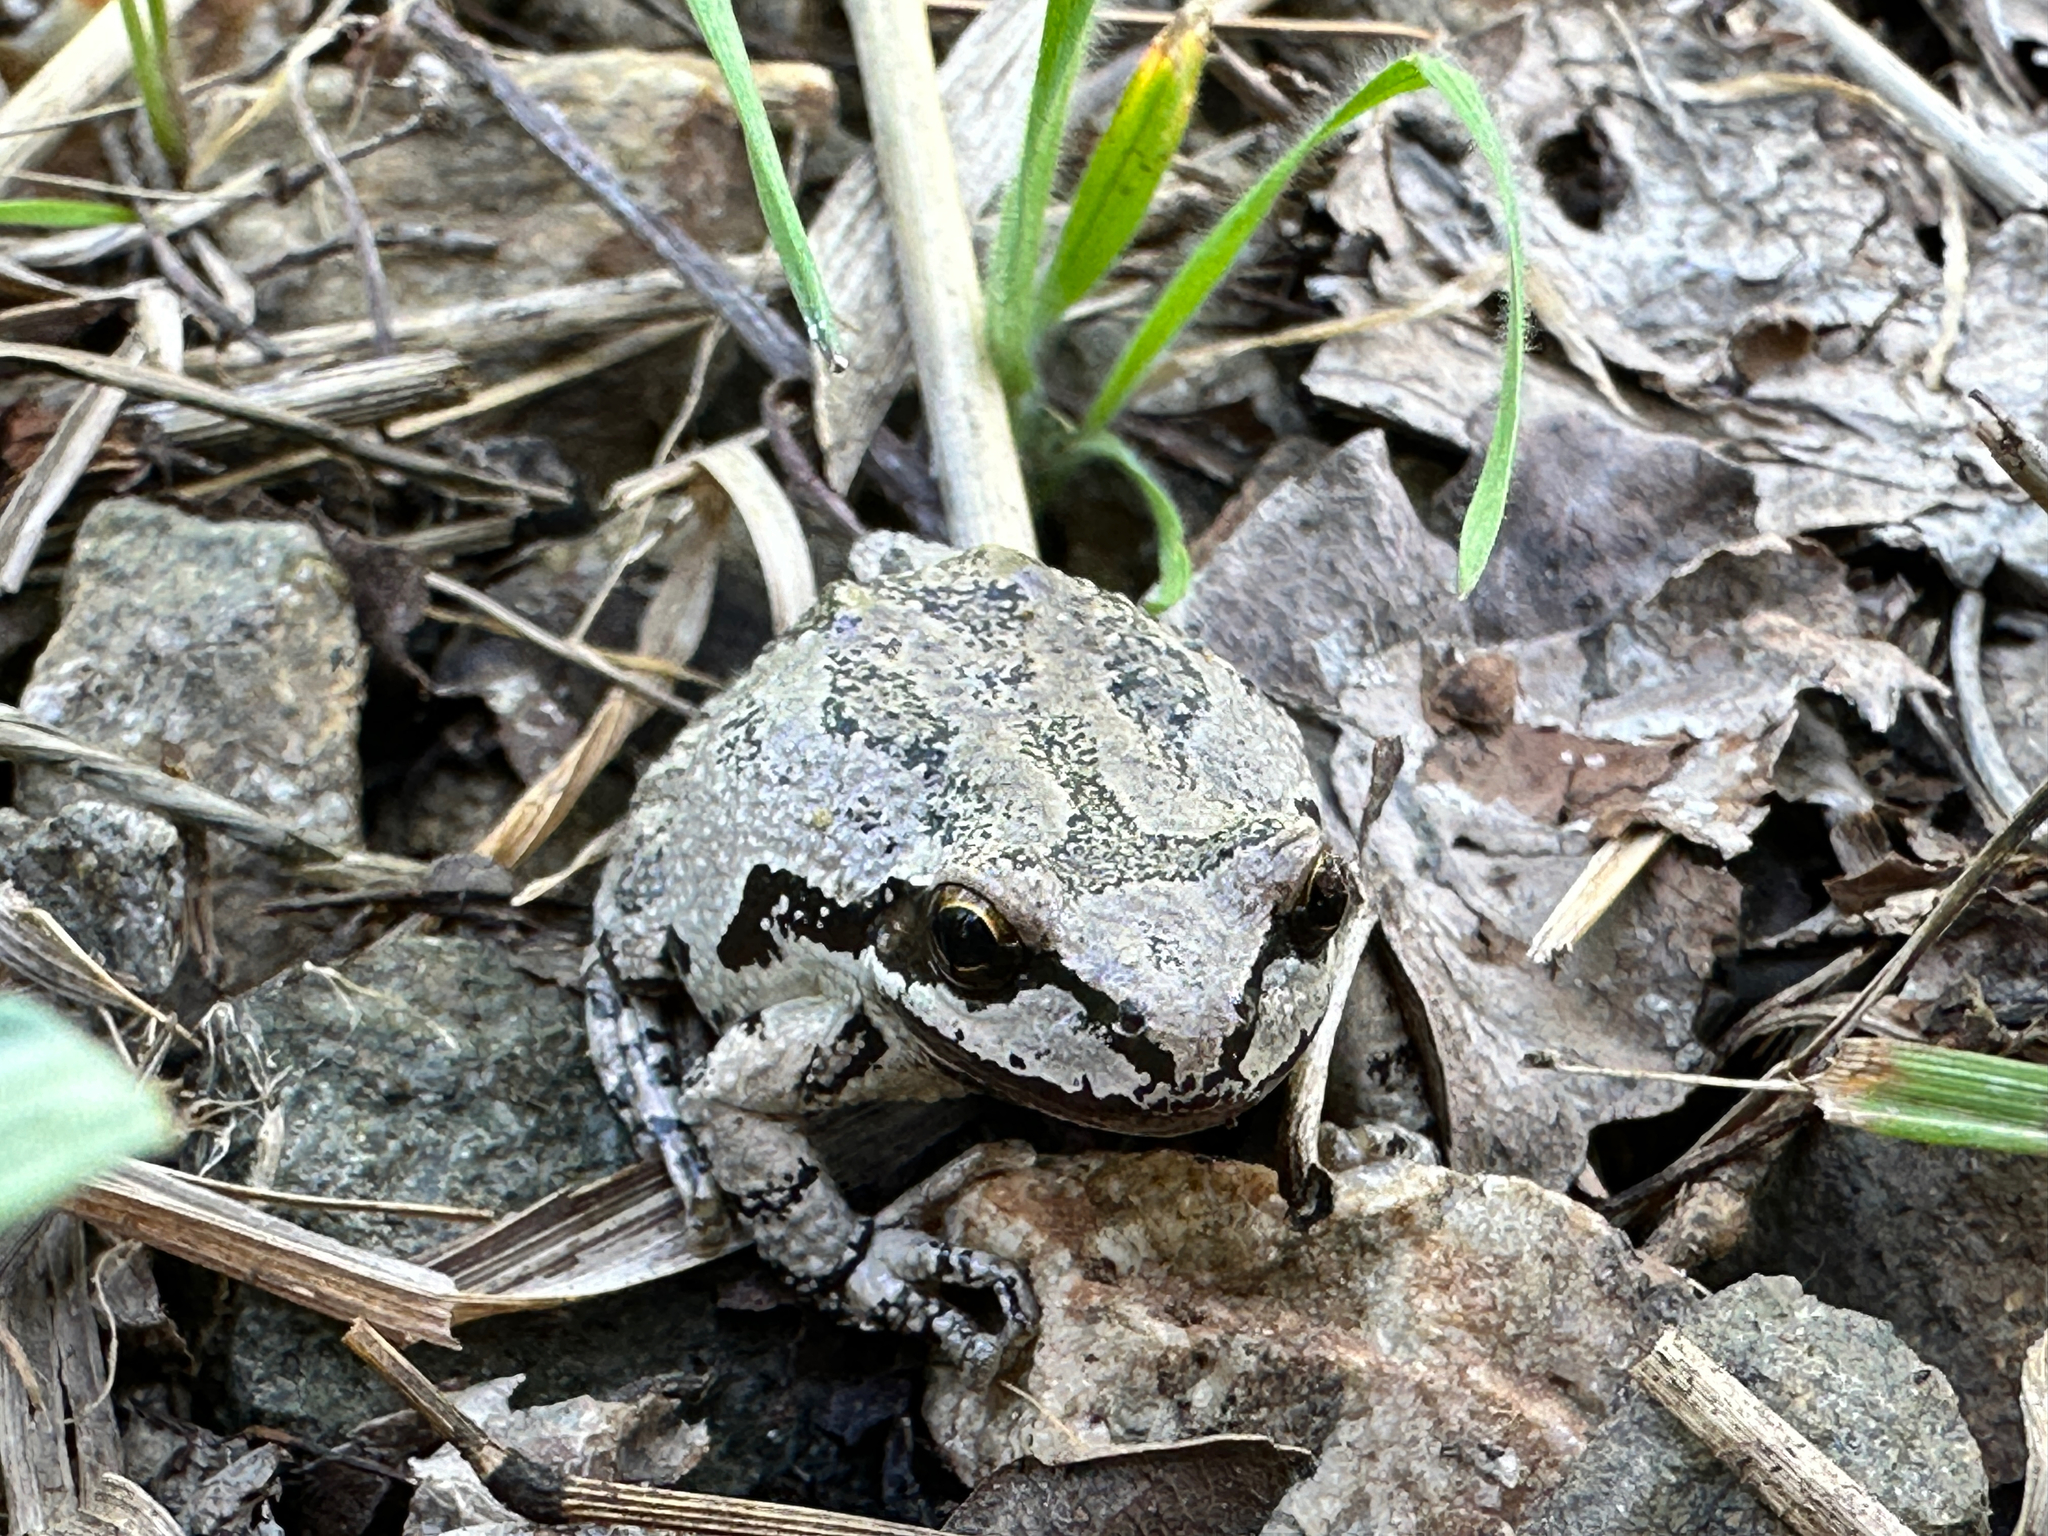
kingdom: Animalia
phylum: Chordata
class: Amphibia
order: Anura
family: Hylidae
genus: Pseudacris
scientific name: Pseudacris regilla
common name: Pacific chorus frog
